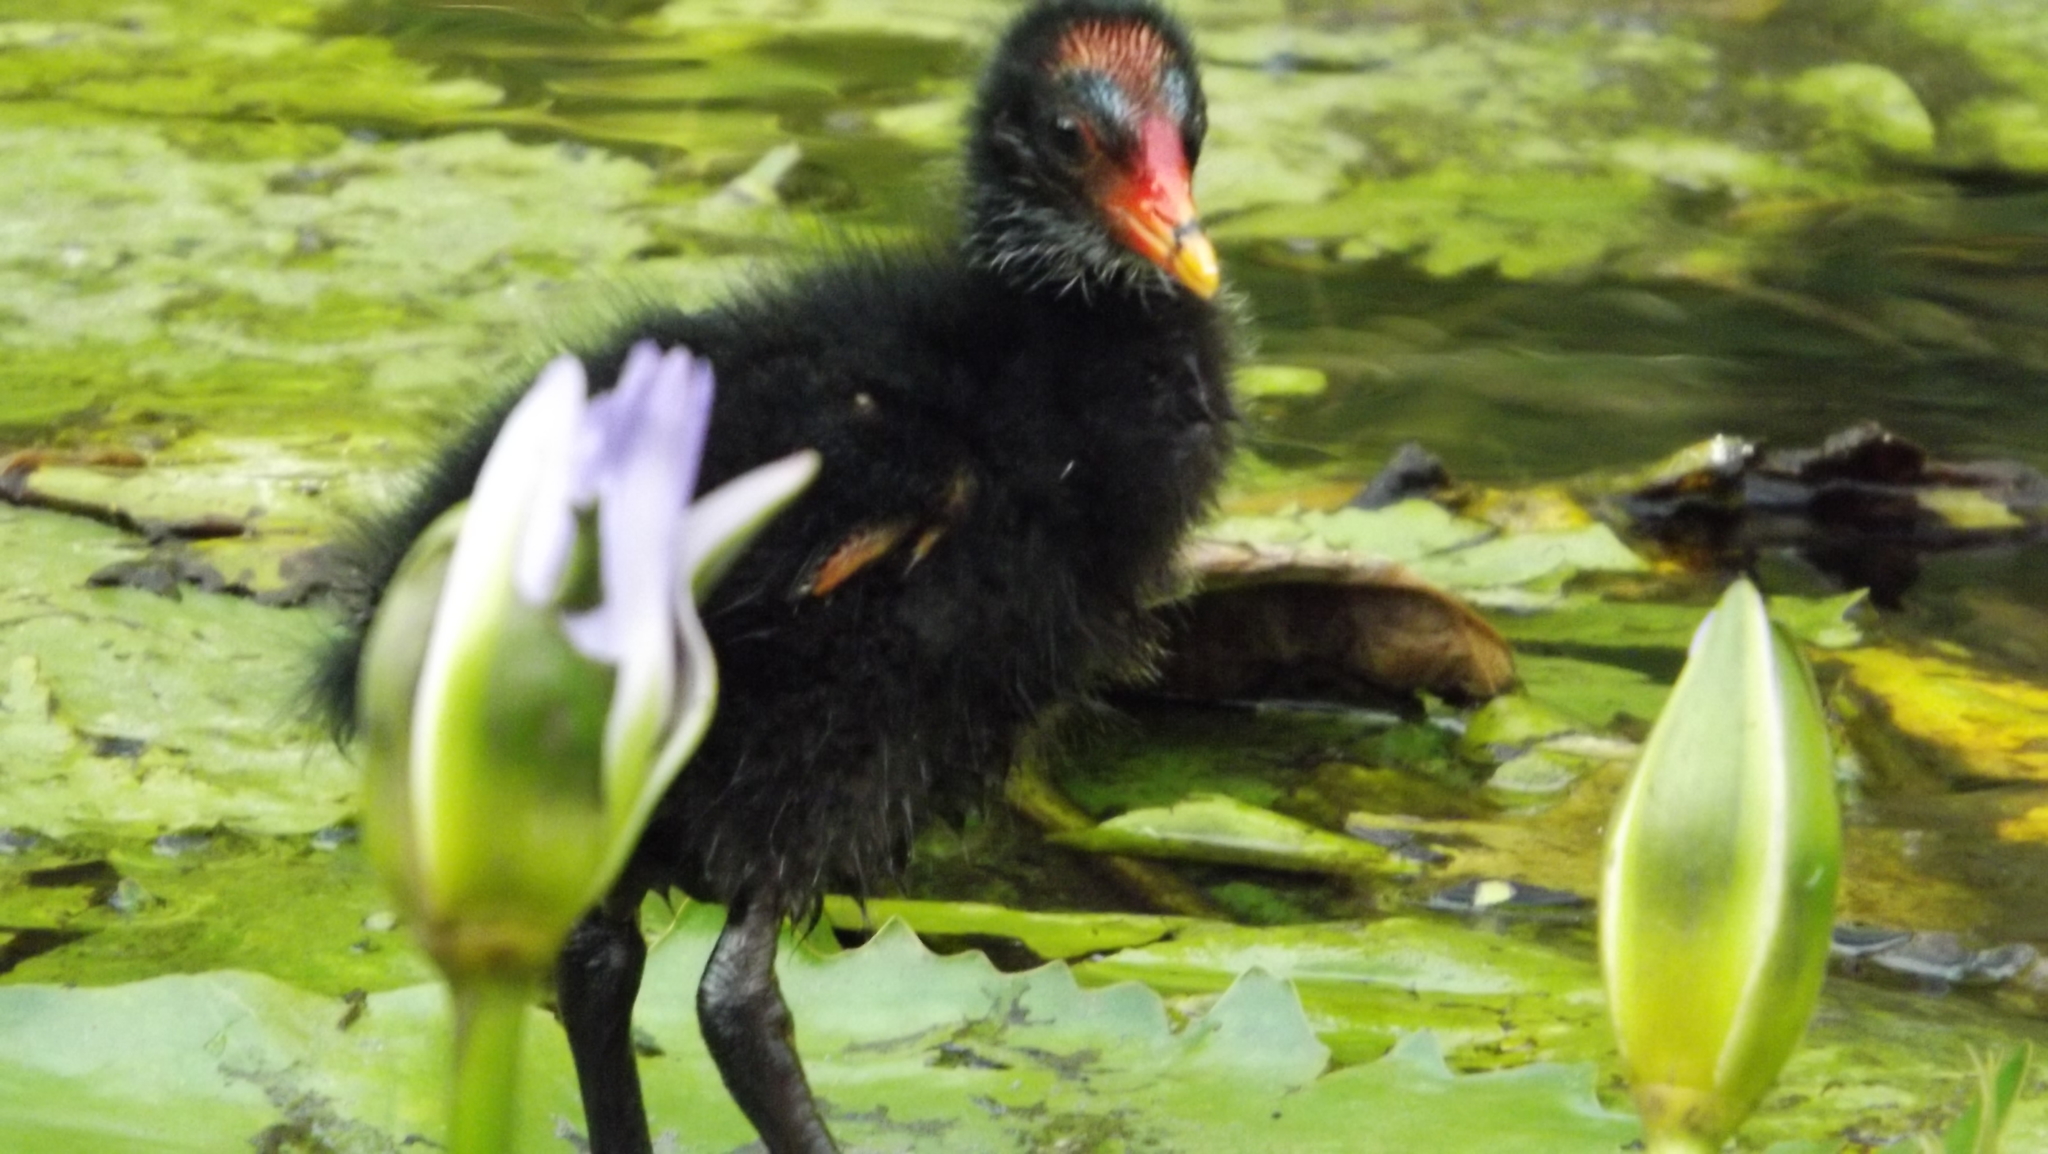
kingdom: Animalia
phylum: Chordata
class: Aves
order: Gruiformes
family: Rallidae
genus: Gallinula
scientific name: Gallinula tenebrosa
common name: Dusky moorhen
